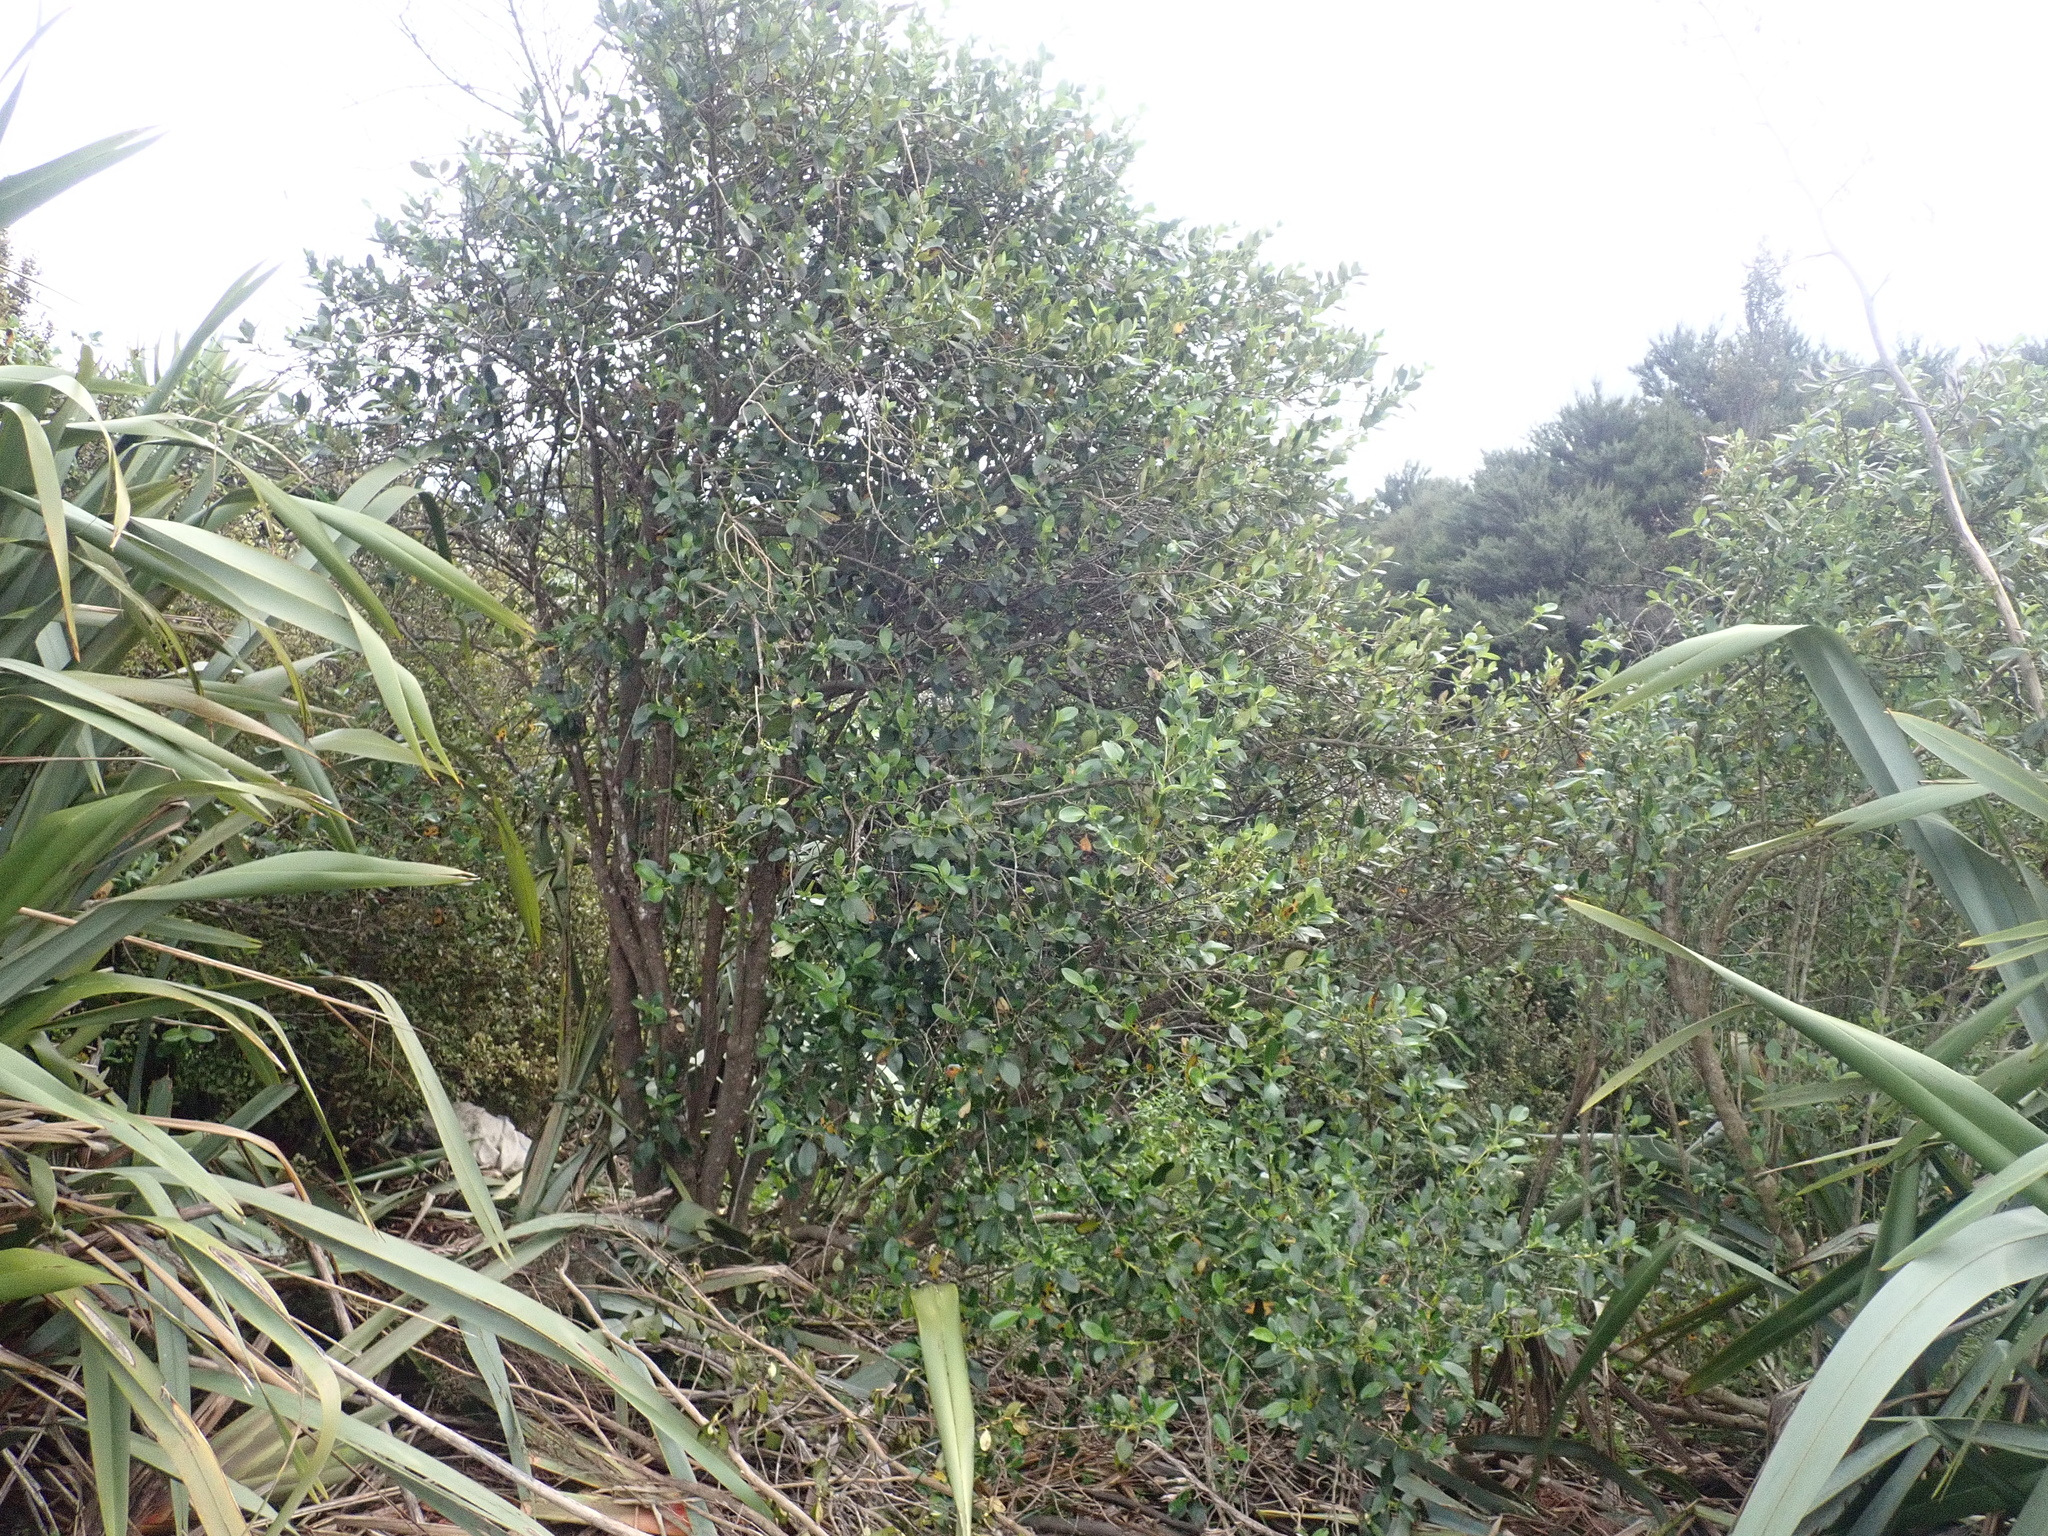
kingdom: Plantae
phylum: Tracheophyta
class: Magnoliopsida
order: Gentianales
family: Rubiaceae
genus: Coprosma
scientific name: Coprosma robusta
